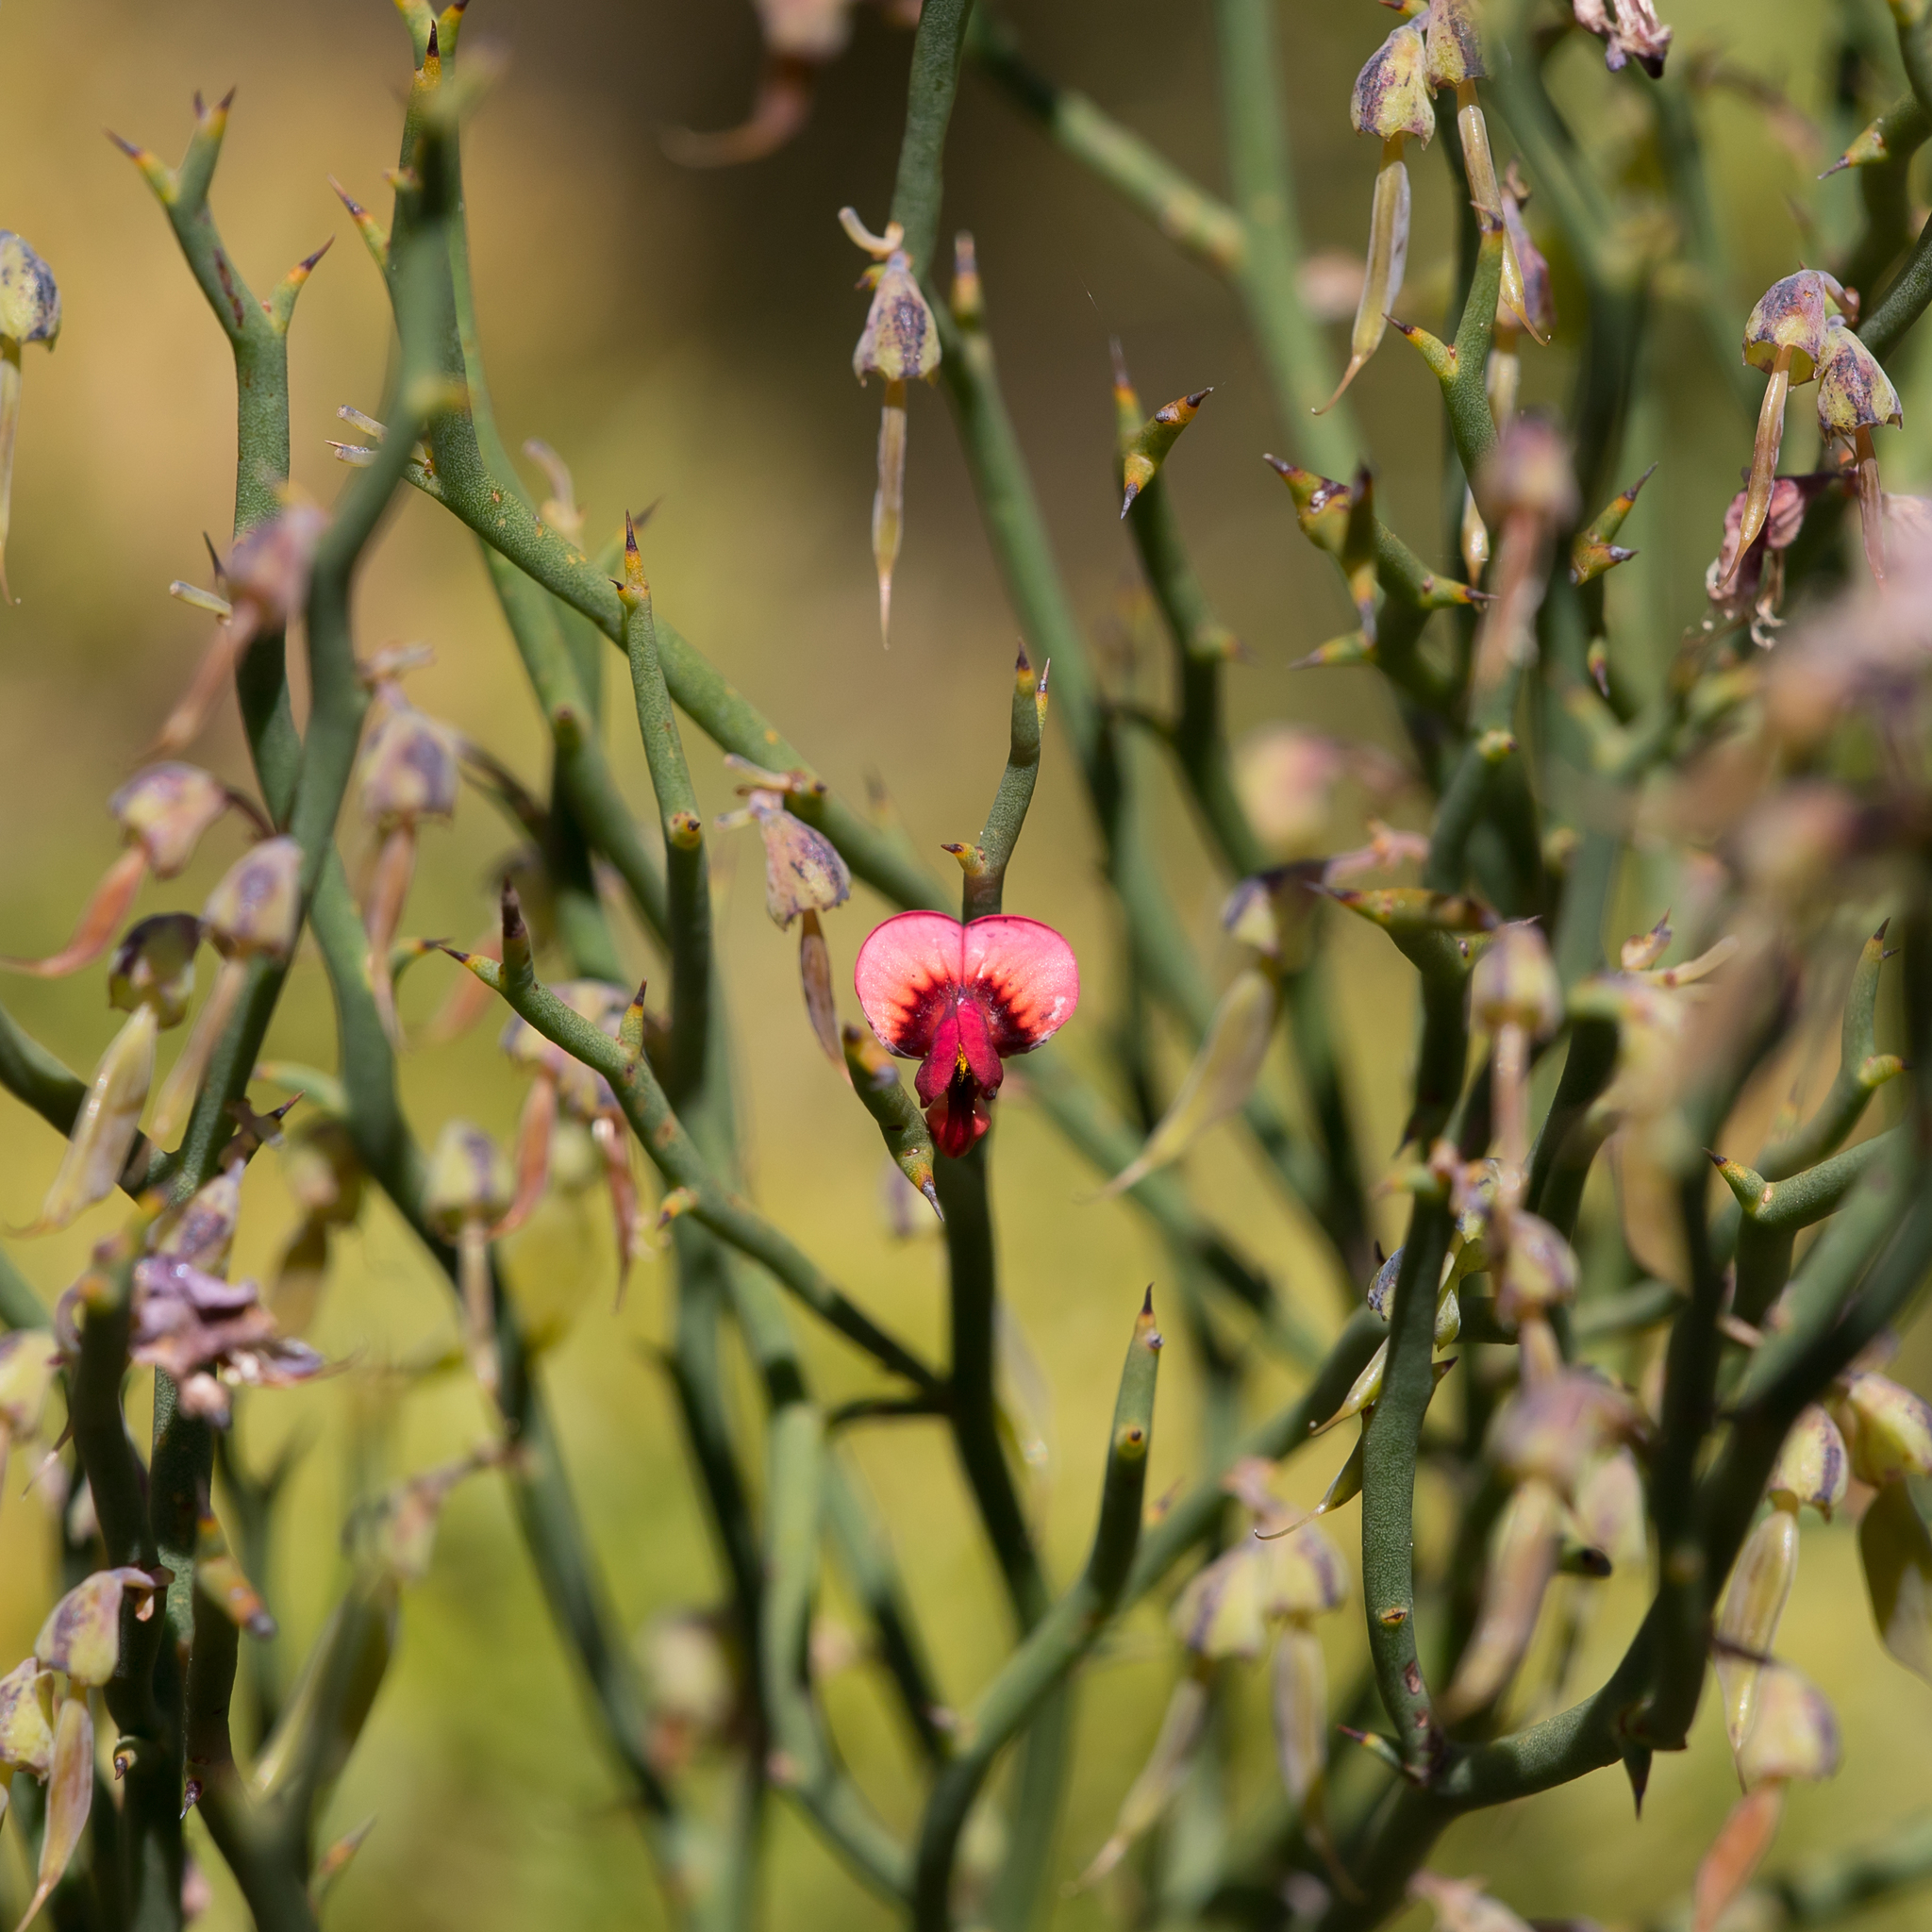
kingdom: Plantae
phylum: Tracheophyta
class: Magnoliopsida
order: Fabales
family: Fabaceae
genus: Daviesia
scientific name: Daviesia brevifolia
